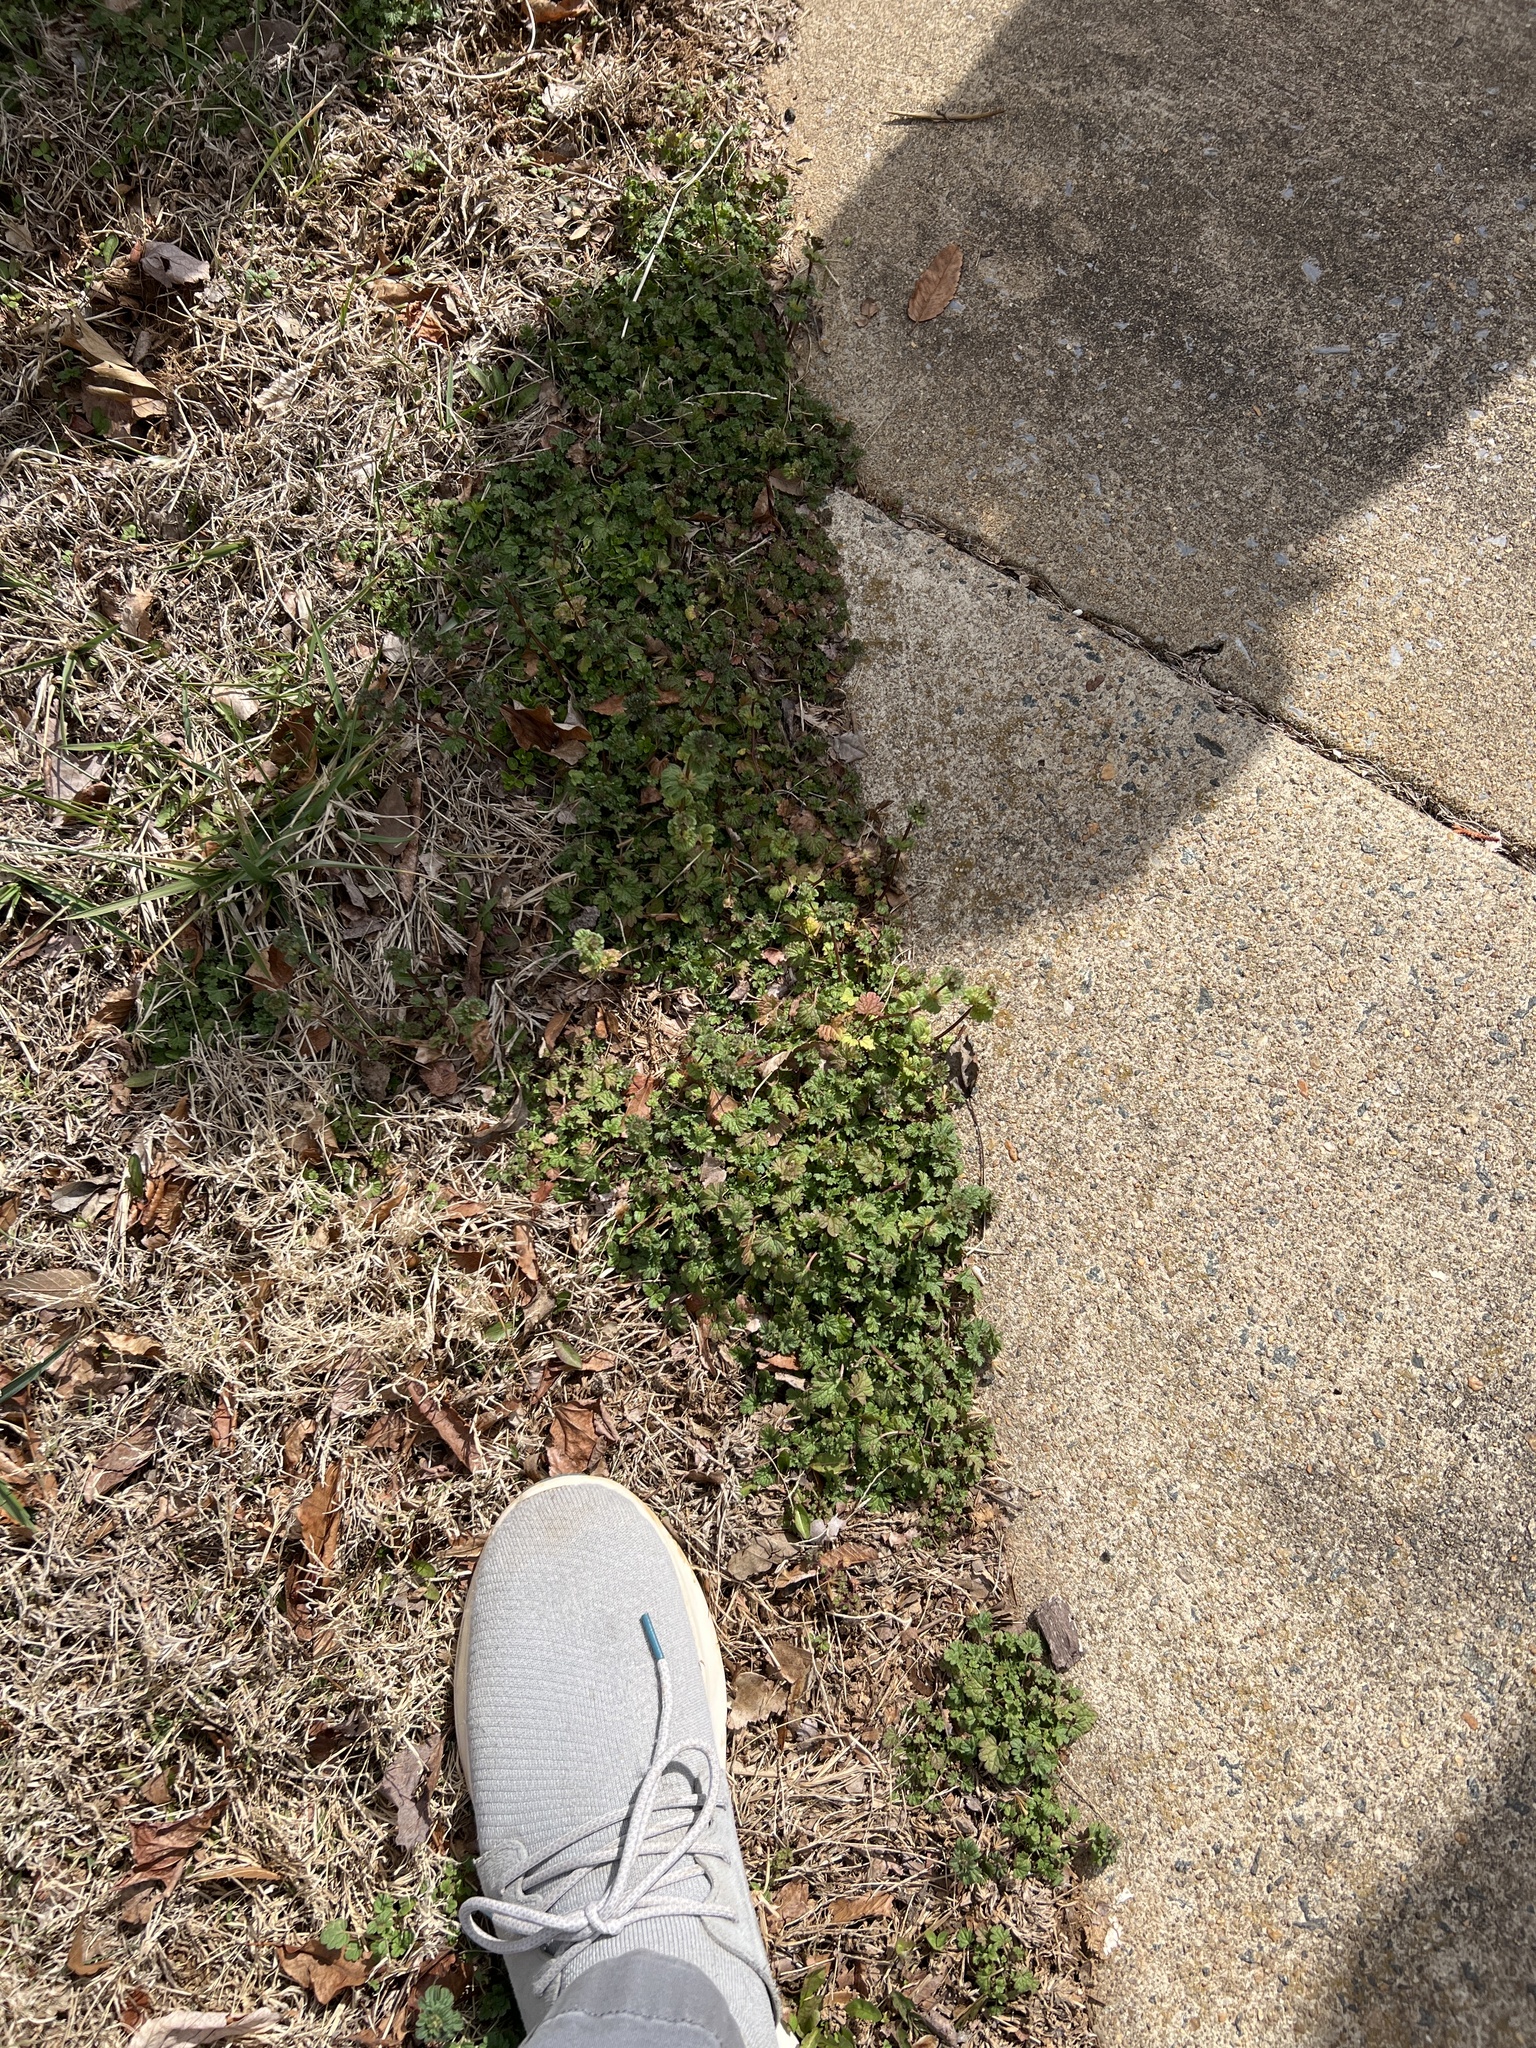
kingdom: Plantae
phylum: Tracheophyta
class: Magnoliopsida
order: Lamiales
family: Lamiaceae
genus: Lamium
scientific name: Lamium amplexicaule
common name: Henbit dead-nettle
